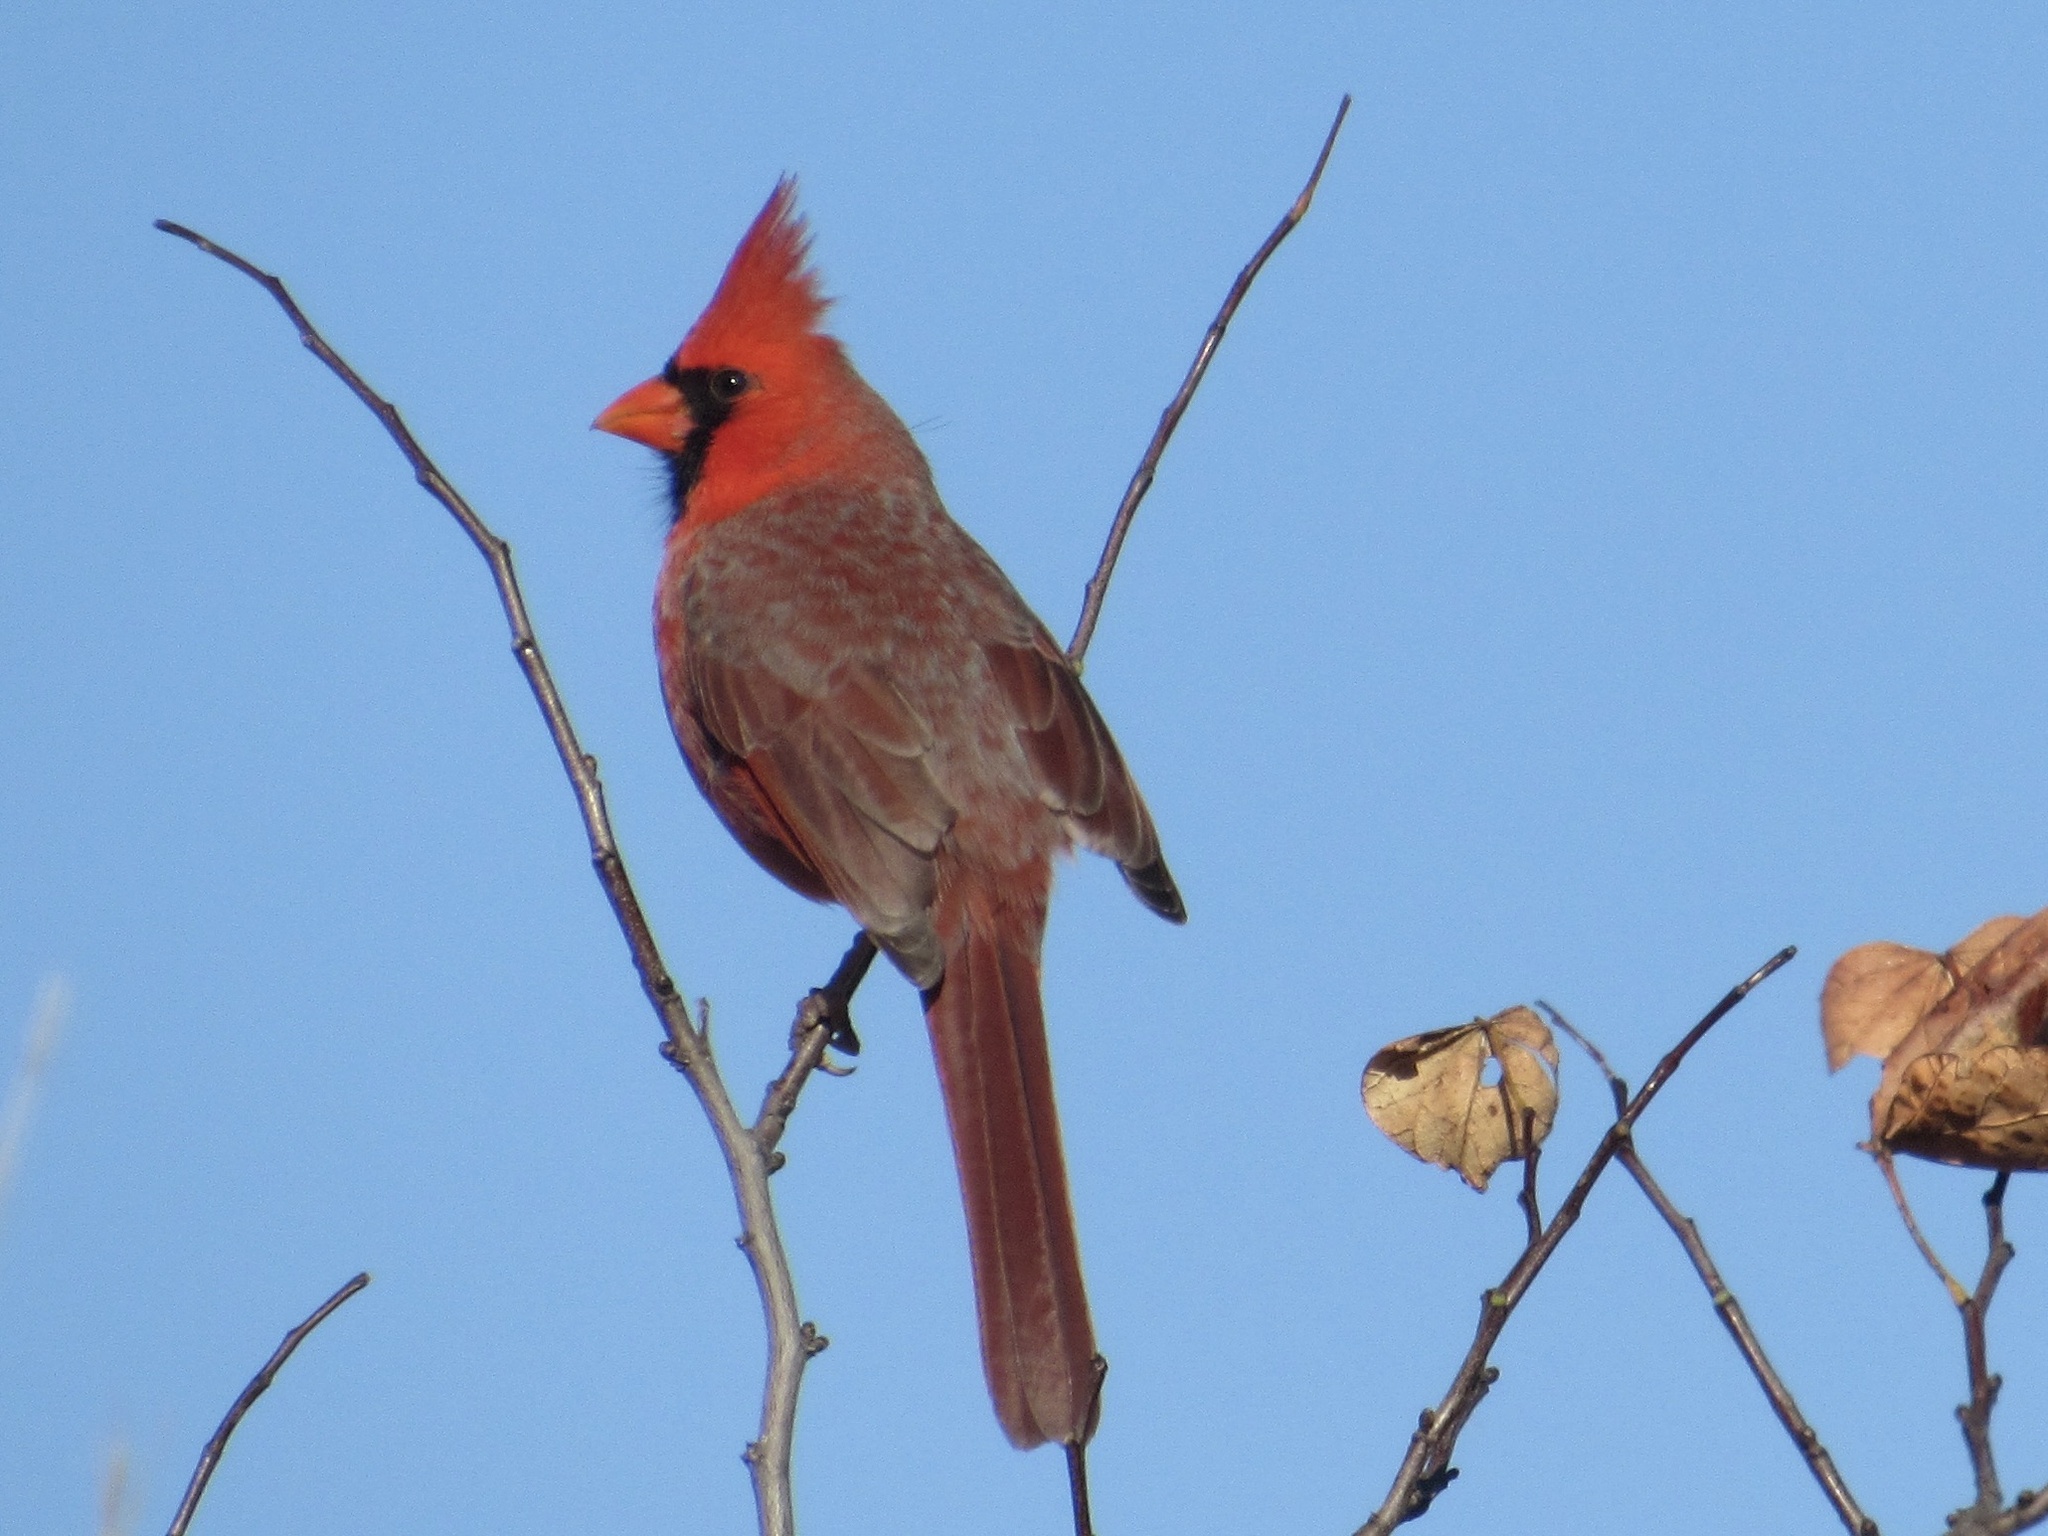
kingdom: Animalia
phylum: Chordata
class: Aves
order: Passeriformes
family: Cardinalidae
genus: Cardinalis
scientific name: Cardinalis cardinalis
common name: Northern cardinal
